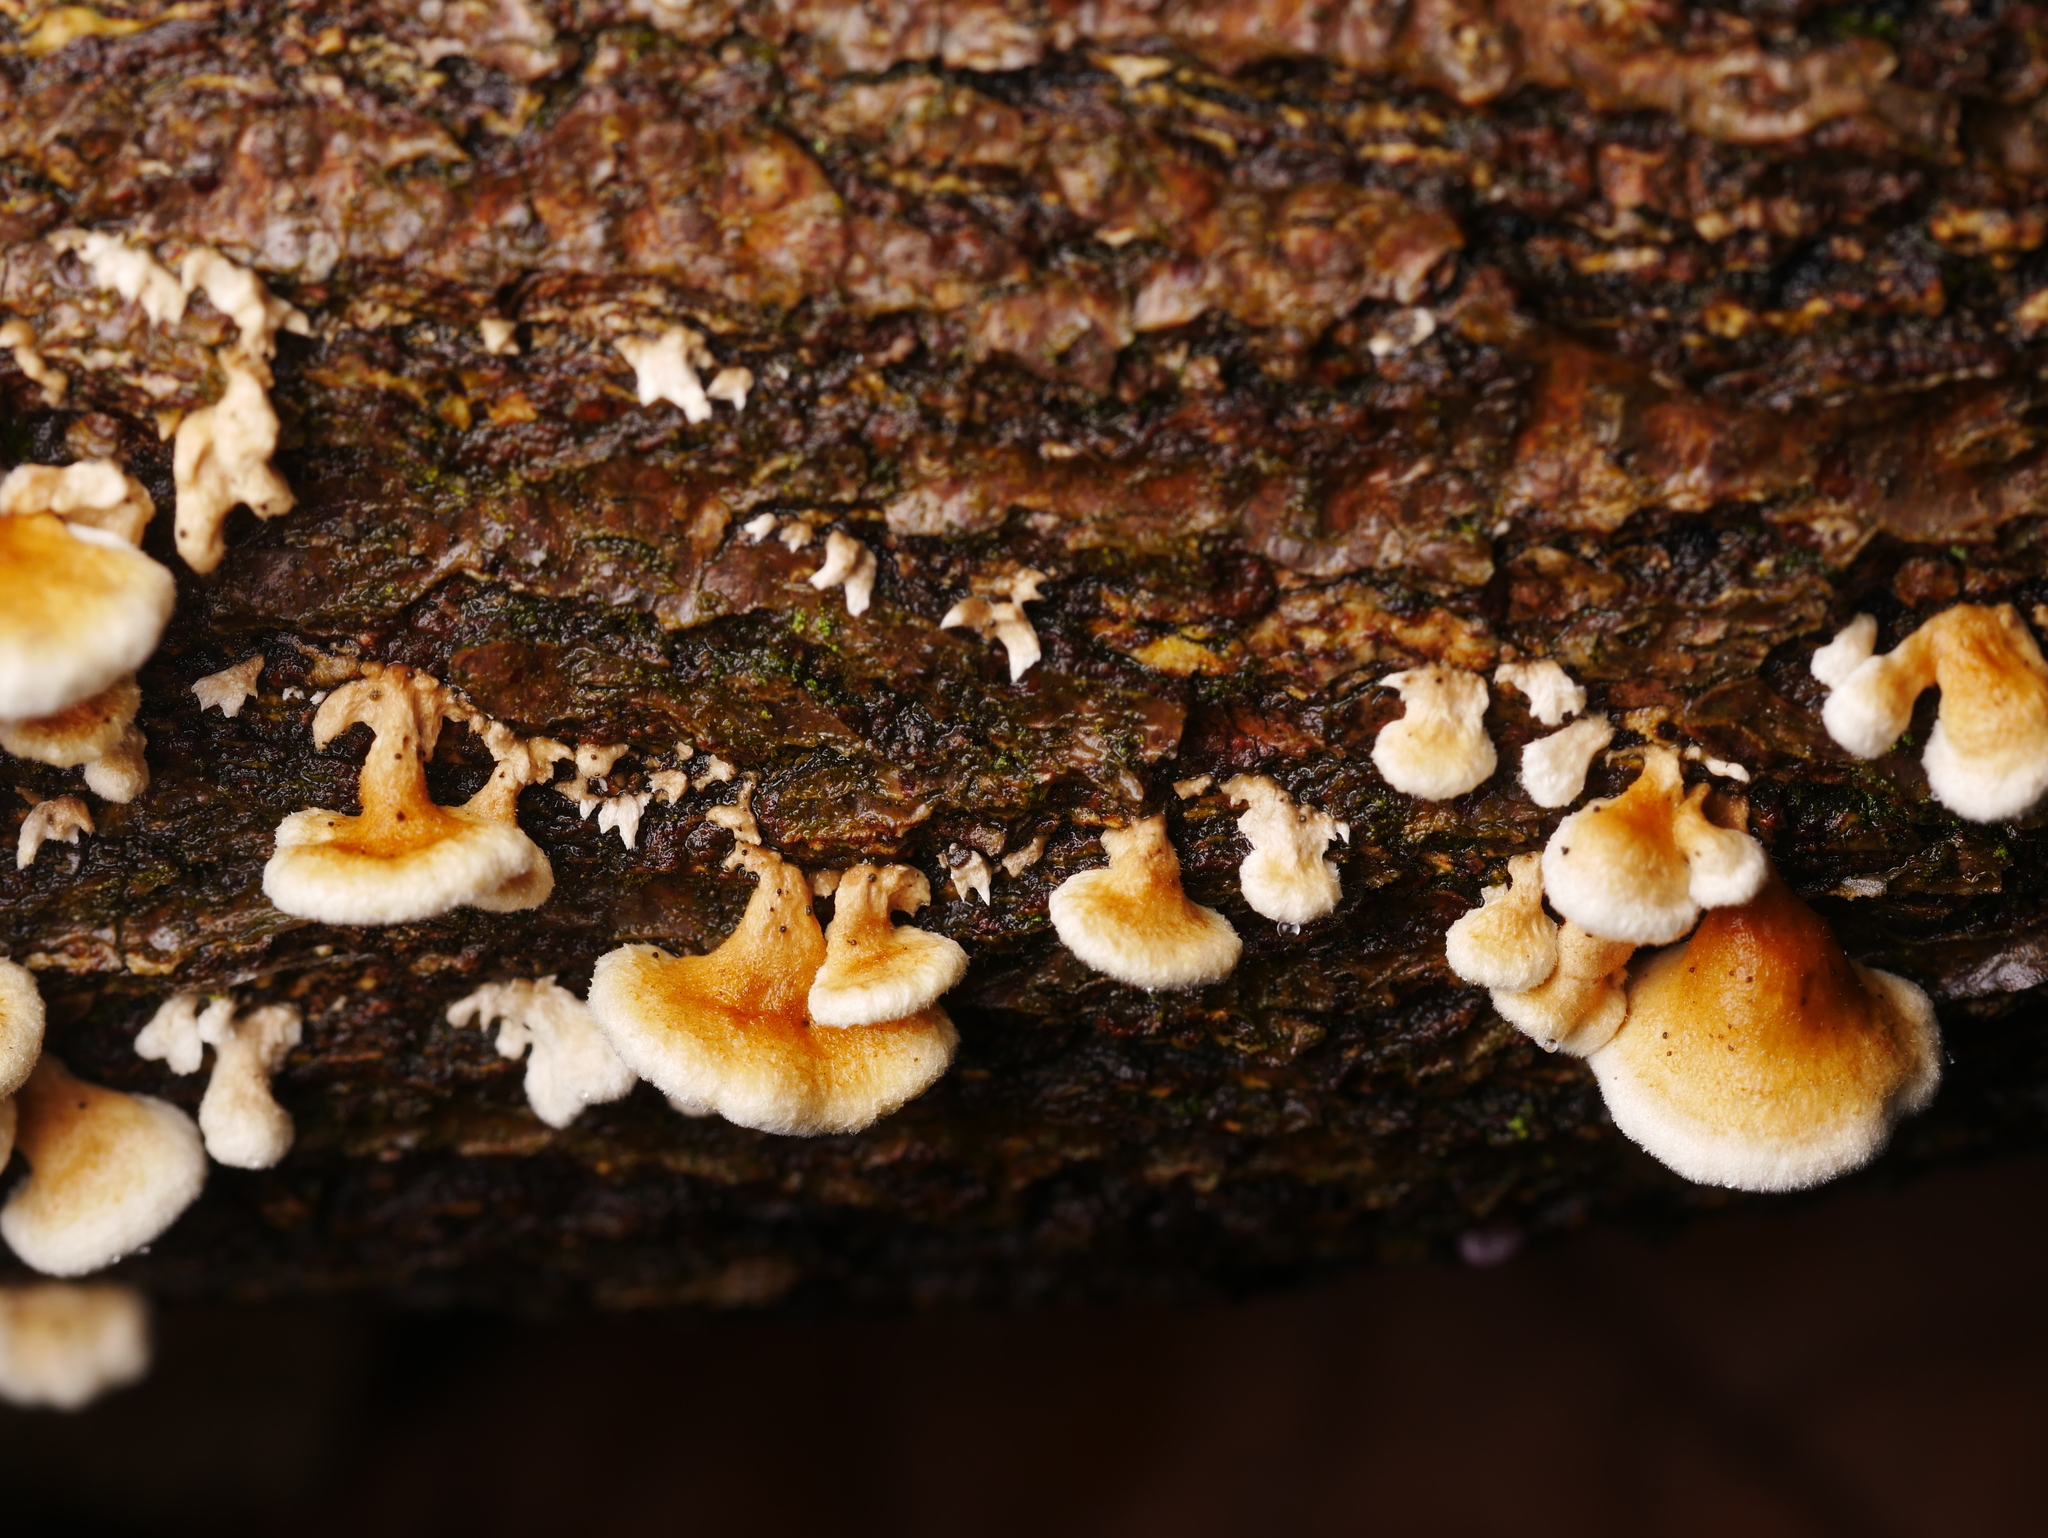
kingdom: Fungi
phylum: Basidiomycota
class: Agaricomycetes
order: Amylocorticiales
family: Amylocorticiaceae
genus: Plicaturopsis
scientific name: Plicaturopsis crispa
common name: Crimped gill
